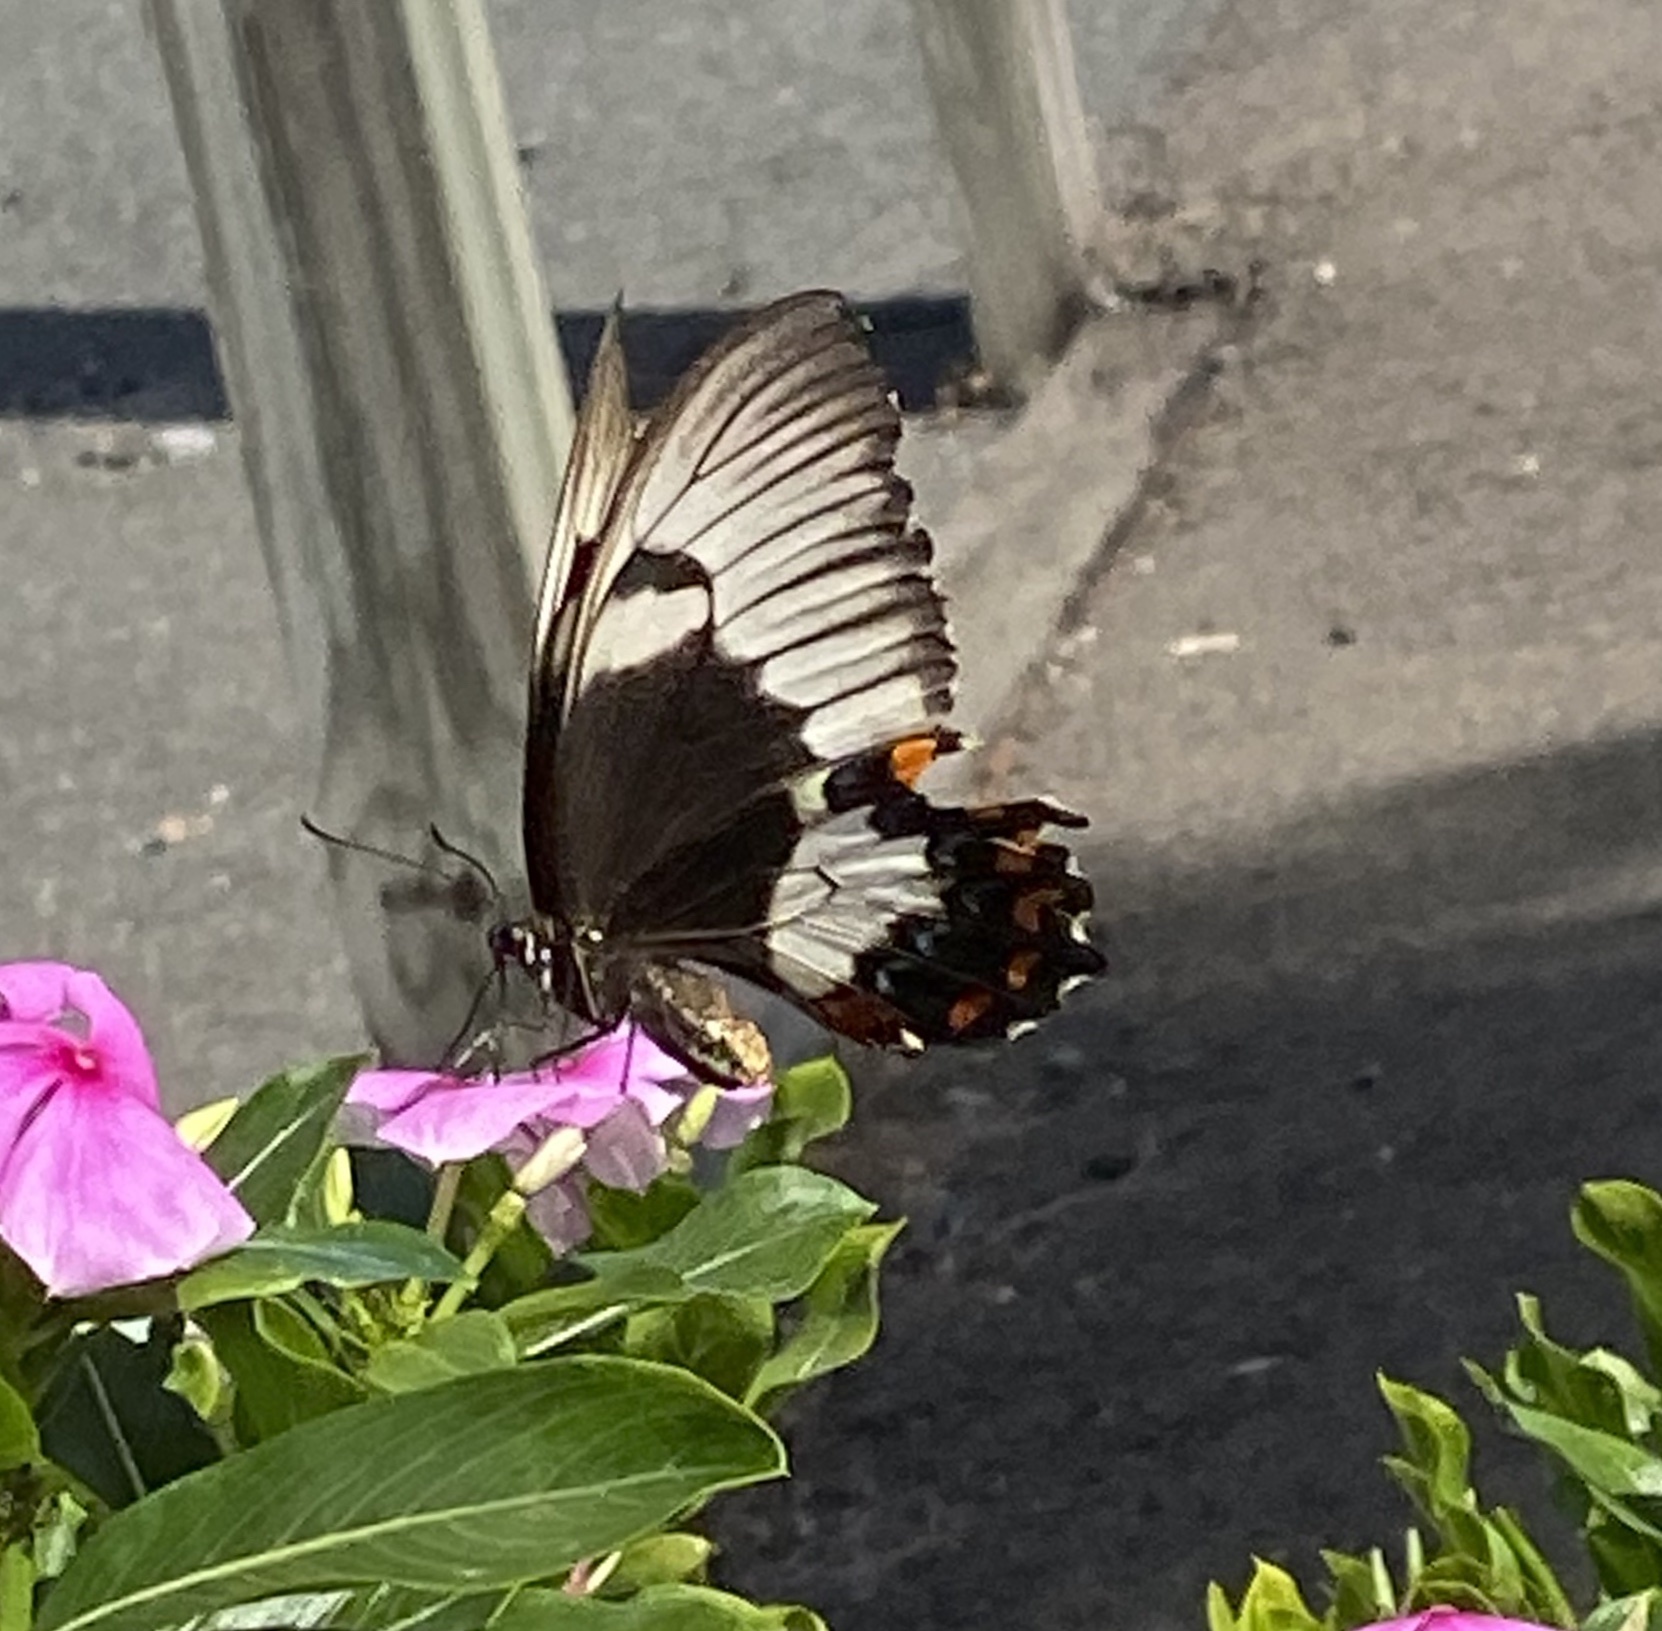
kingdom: Animalia
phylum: Arthropoda
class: Insecta
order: Lepidoptera
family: Papilionidae
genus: Papilio
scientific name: Papilio aegeus
